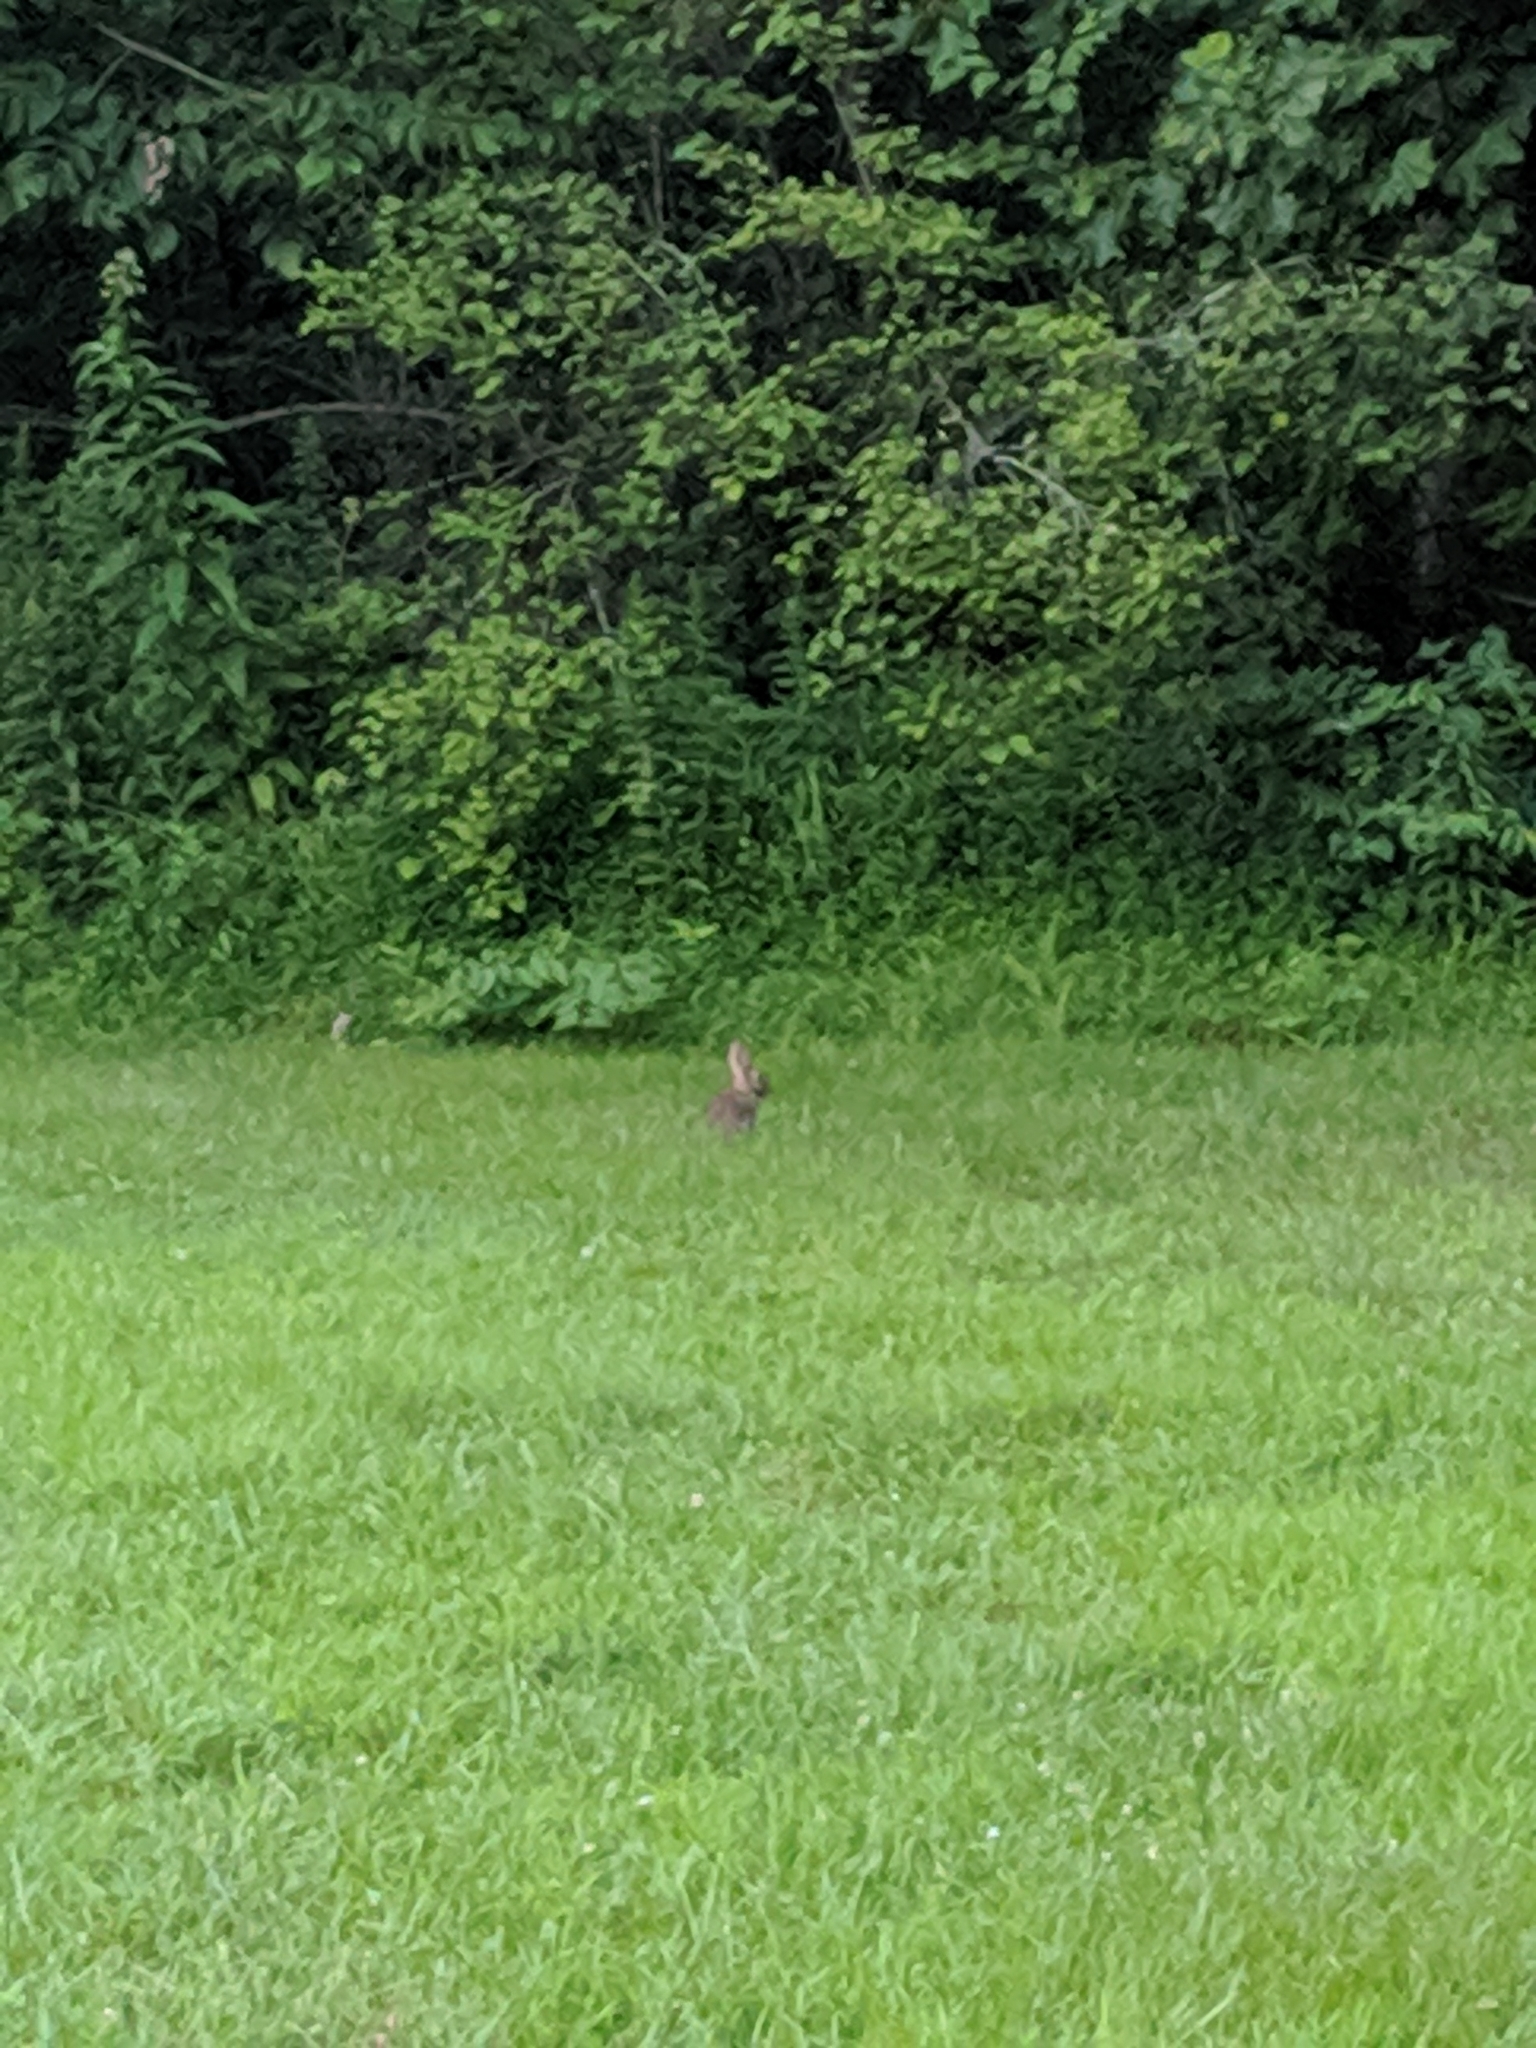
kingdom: Animalia
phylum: Chordata
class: Mammalia
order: Lagomorpha
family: Leporidae
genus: Sylvilagus
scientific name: Sylvilagus floridanus
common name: Eastern cottontail
